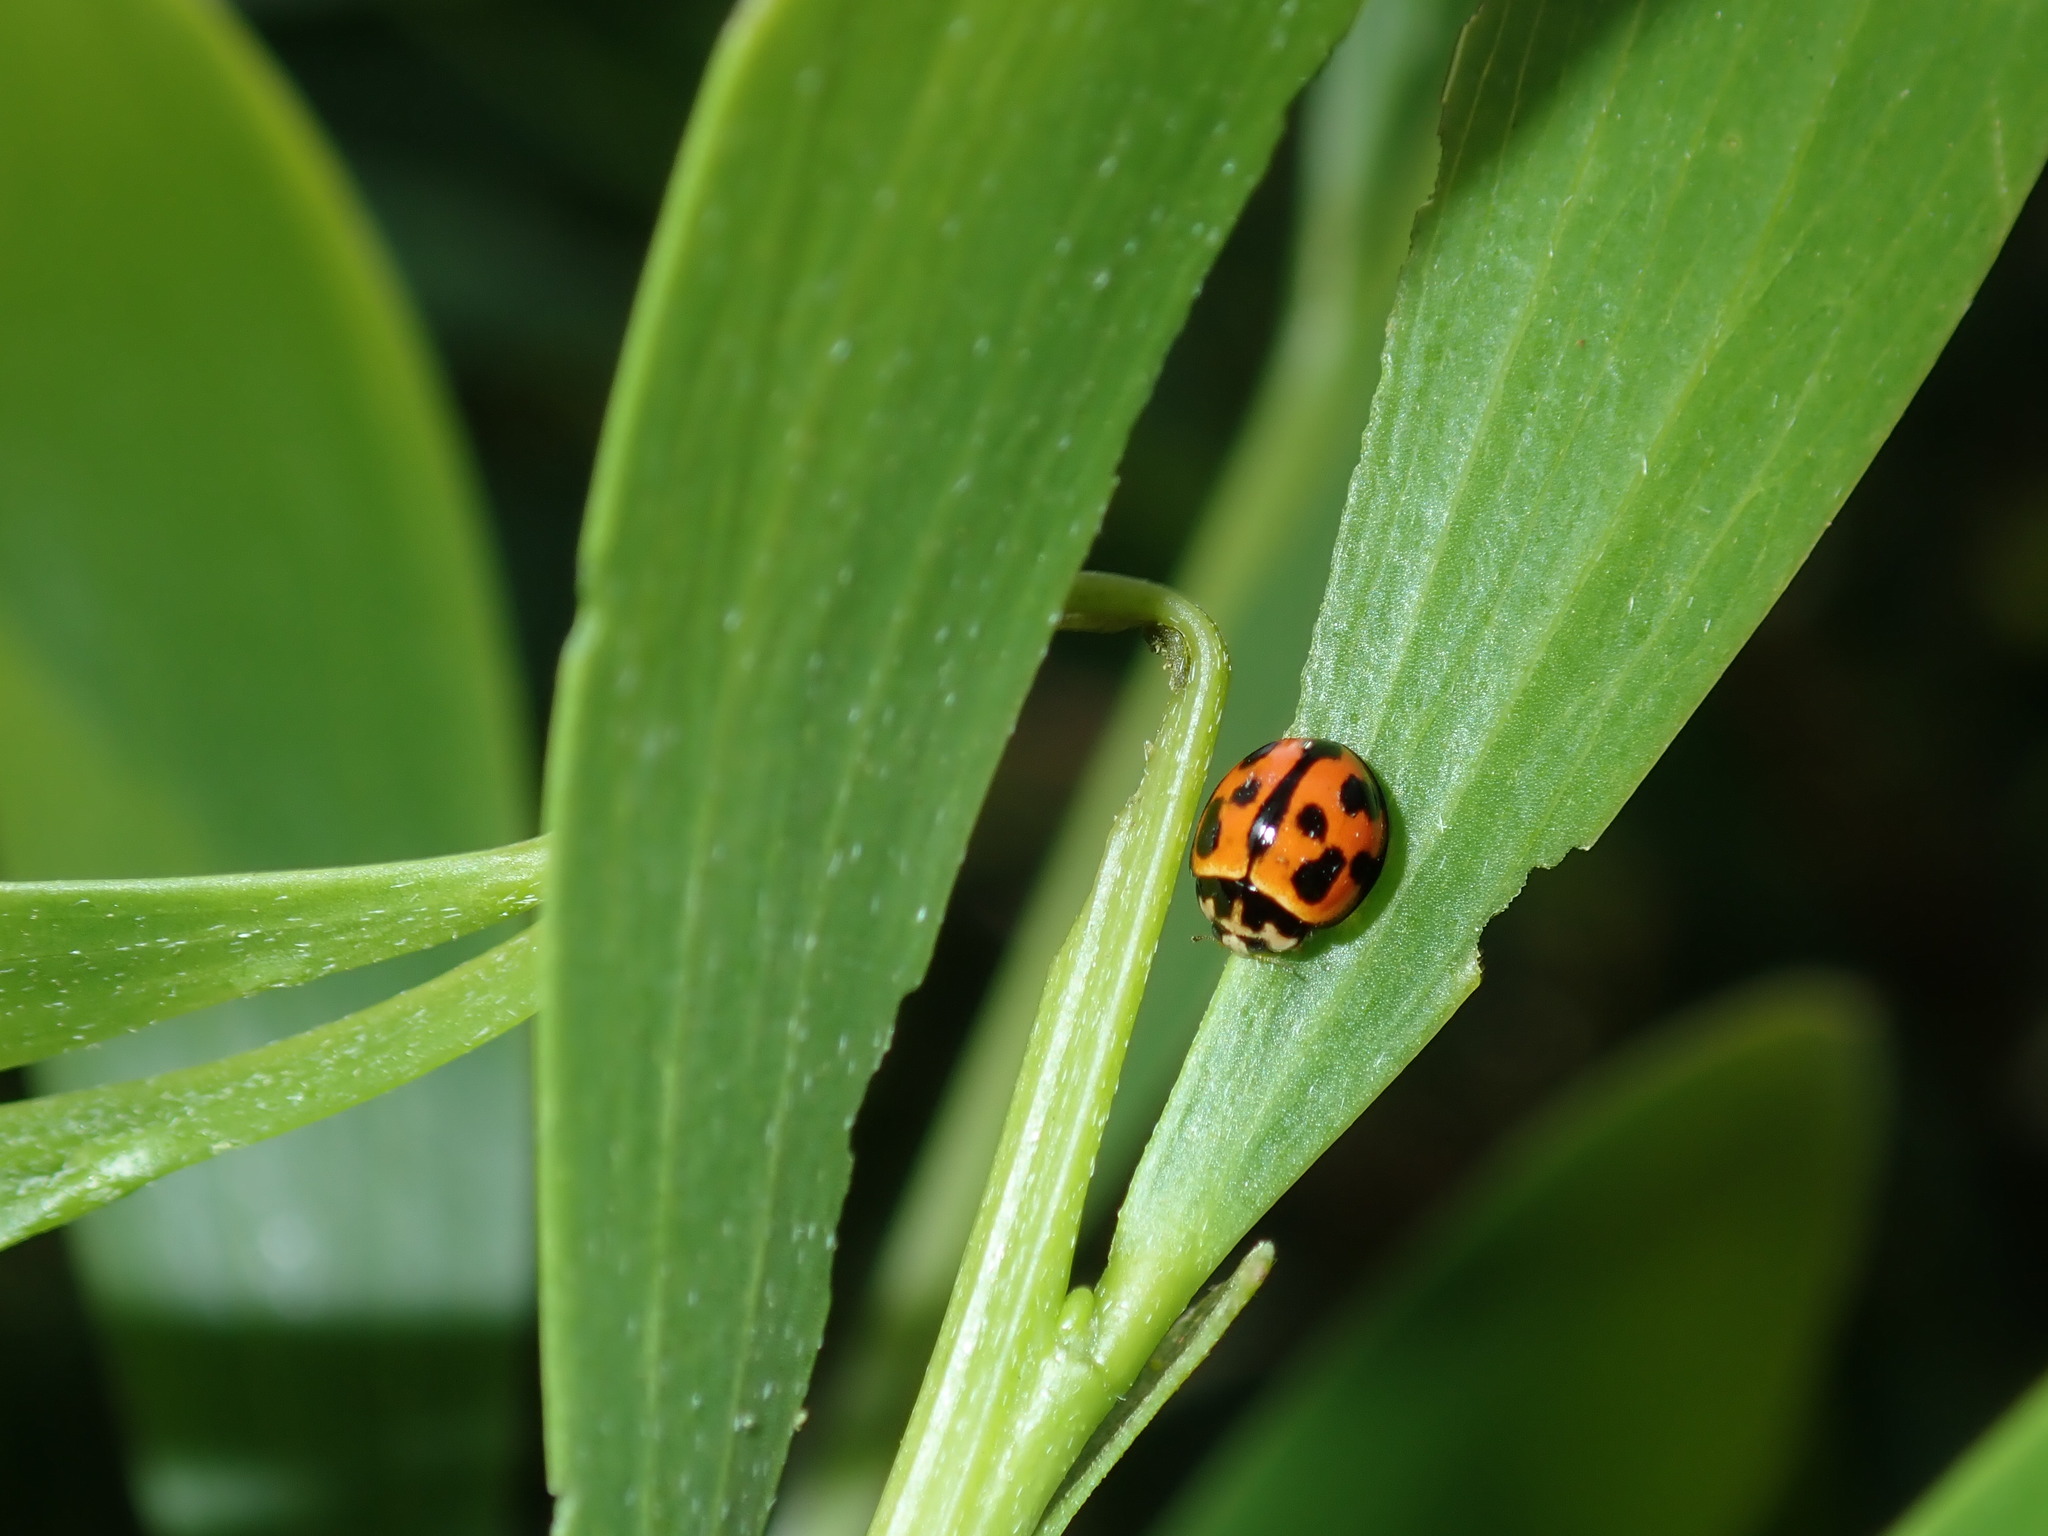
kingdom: Animalia
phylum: Arthropoda
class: Insecta
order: Coleoptera
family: Coccinellidae
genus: Coelophora
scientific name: Coelophora inaequalis
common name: Common australian lady beetle
